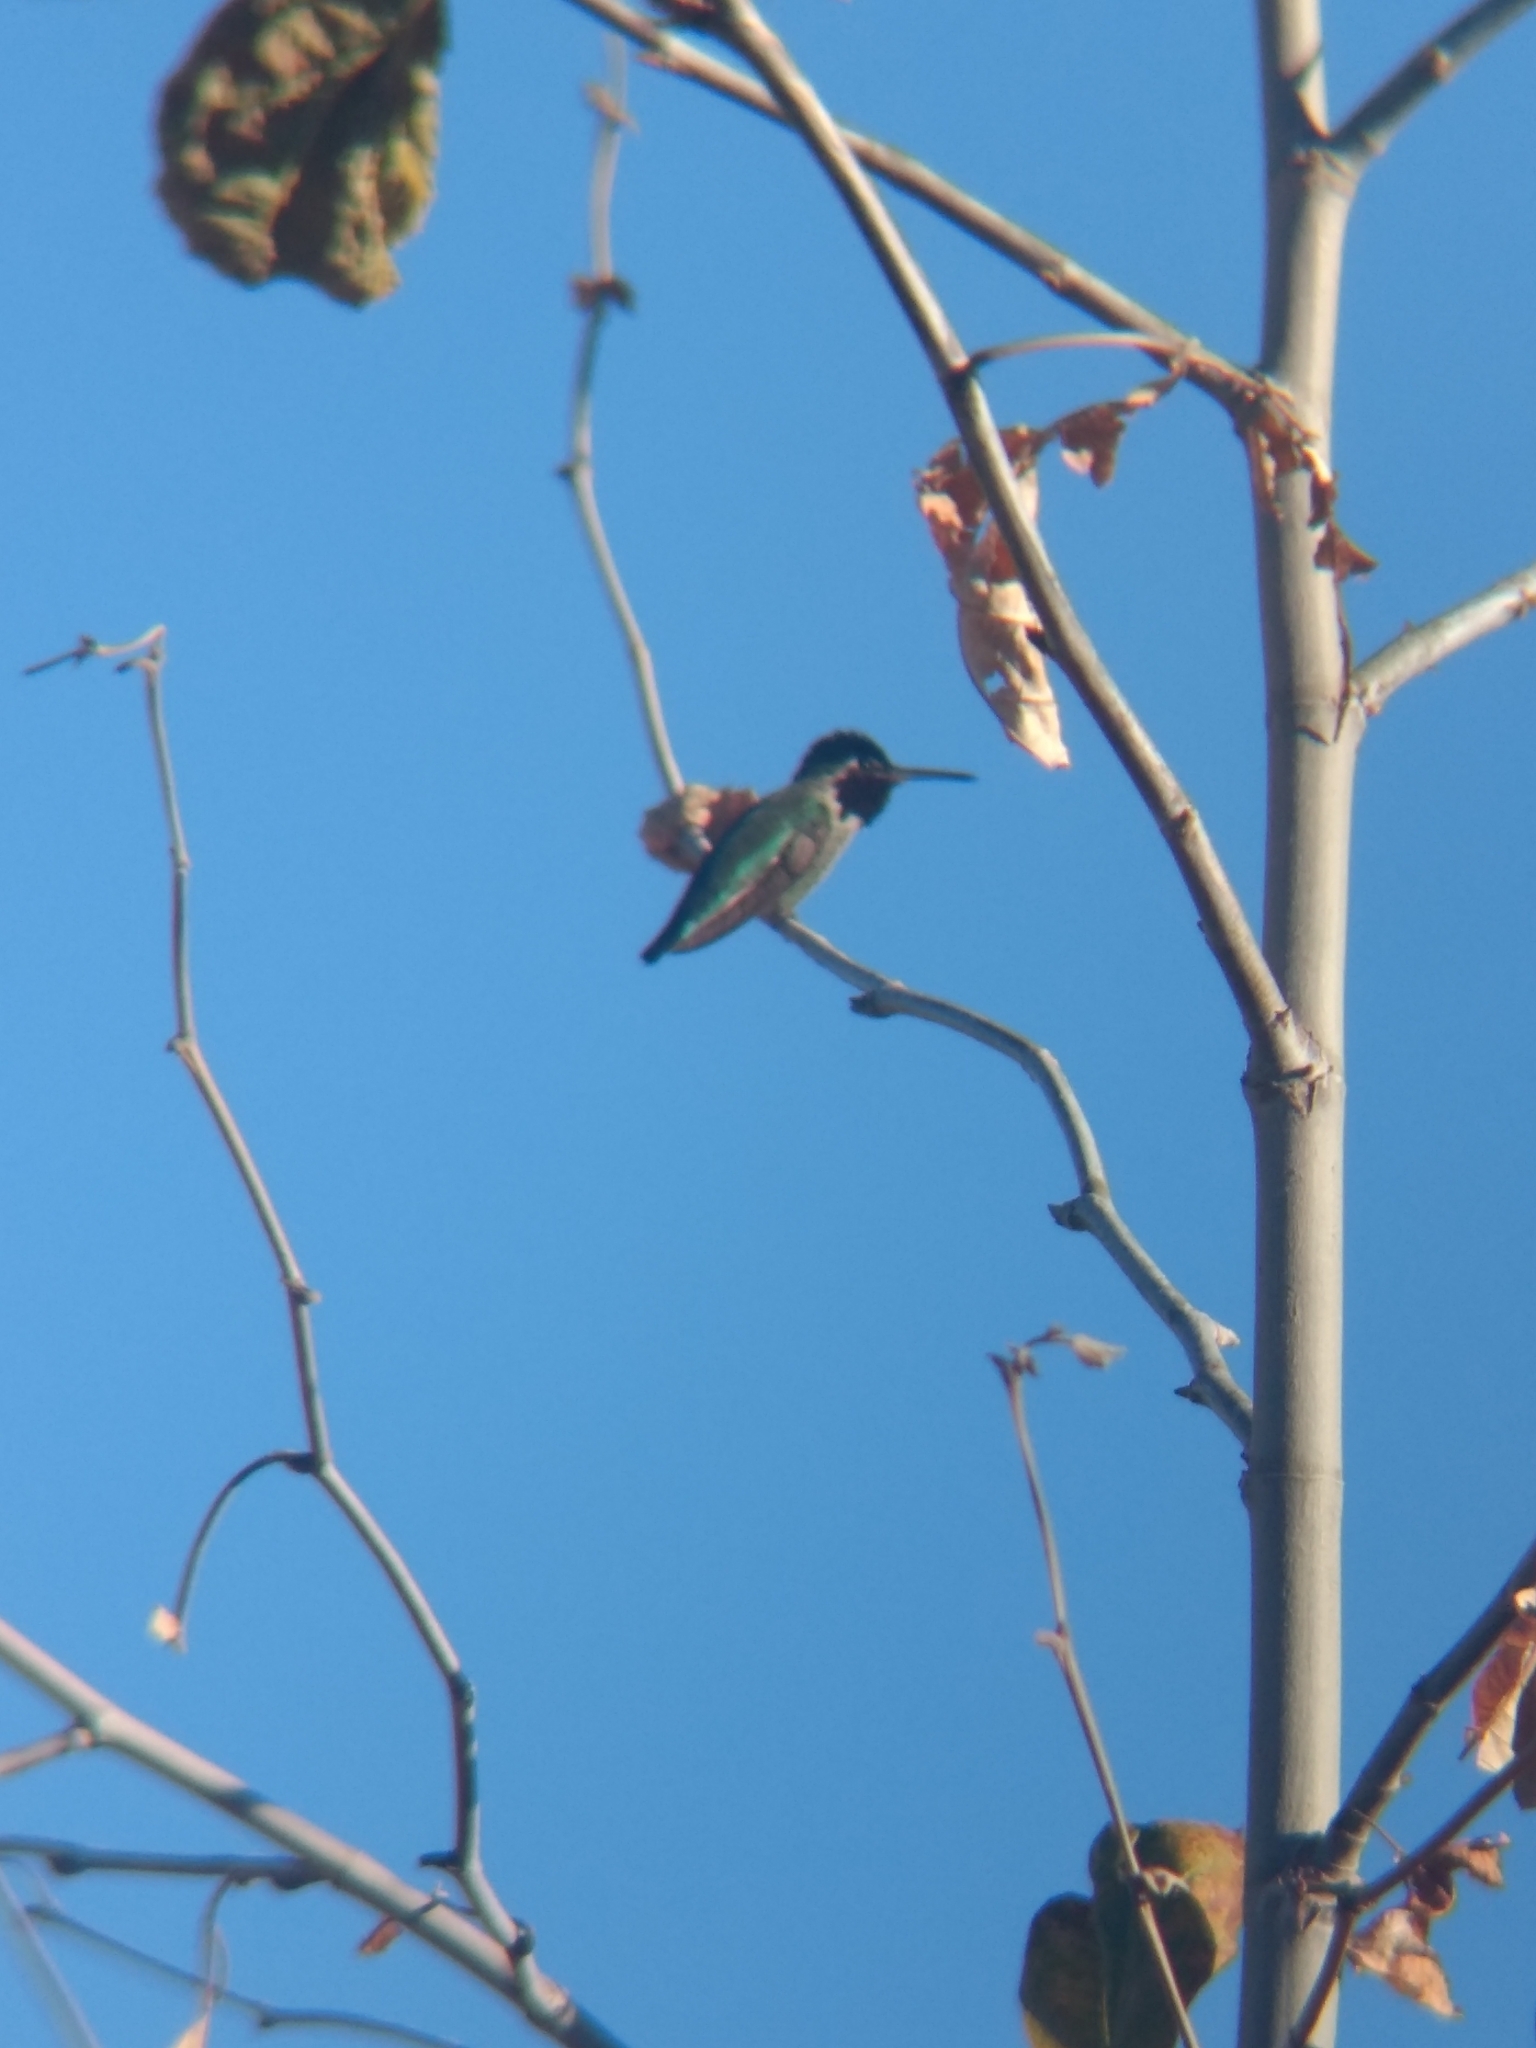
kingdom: Animalia
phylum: Chordata
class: Aves
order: Apodiformes
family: Trochilidae
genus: Calypte
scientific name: Calypte anna
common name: Anna's hummingbird
